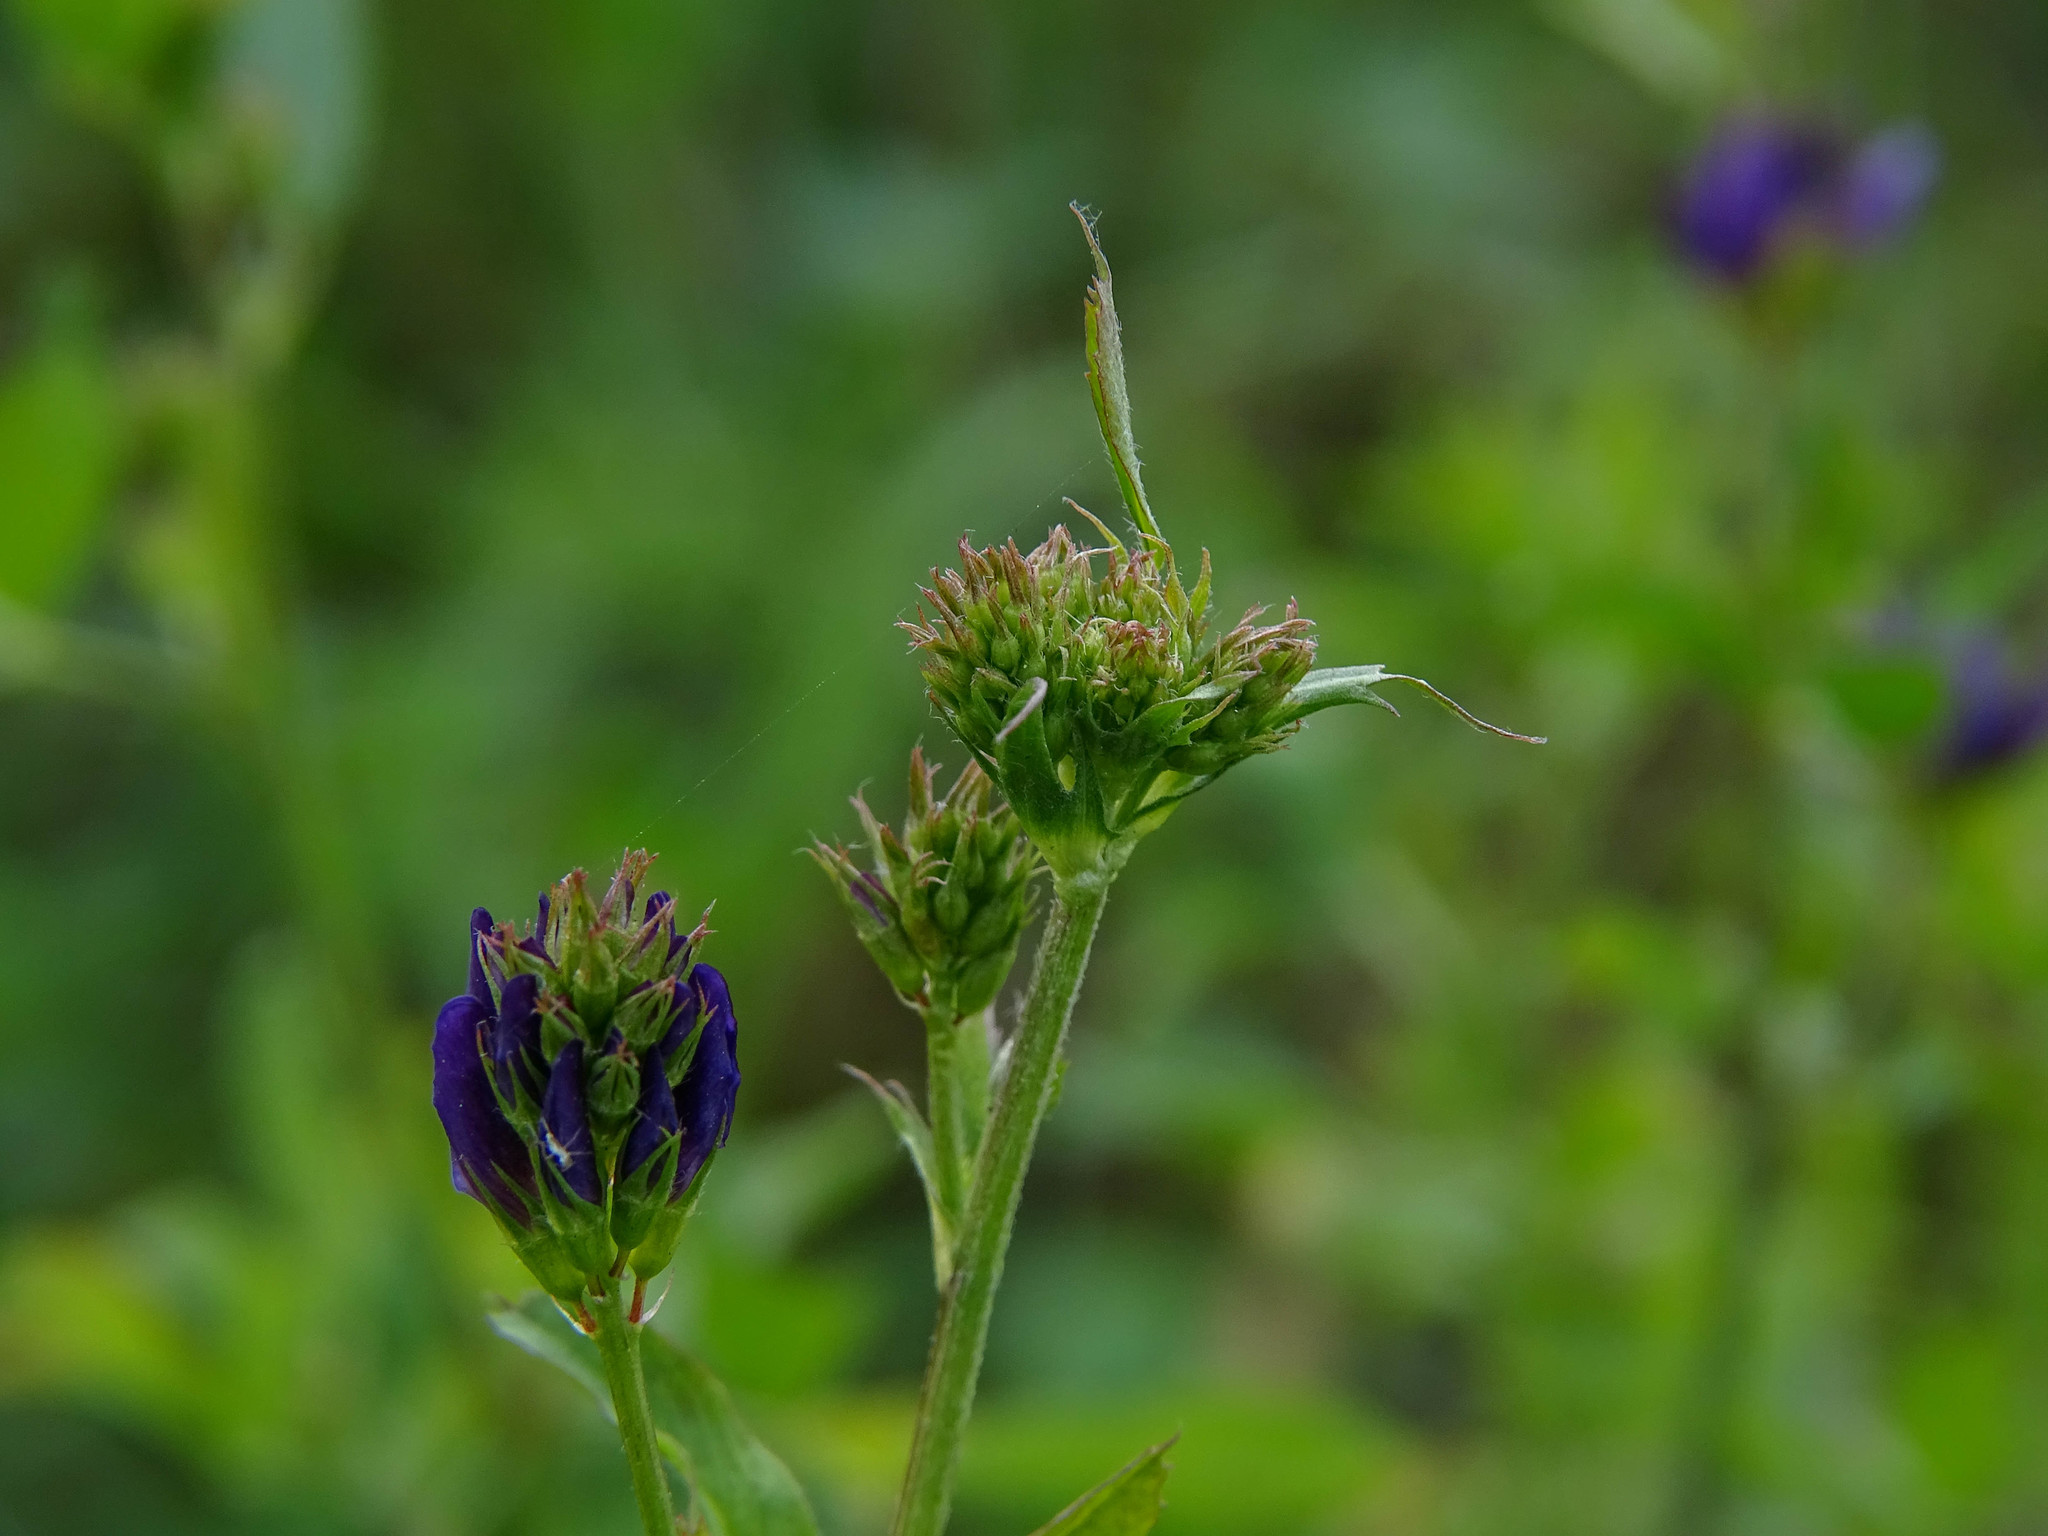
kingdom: Plantae
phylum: Tracheophyta
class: Magnoliopsida
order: Fabales
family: Fabaceae
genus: Medicago
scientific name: Medicago sativa
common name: Alfalfa
